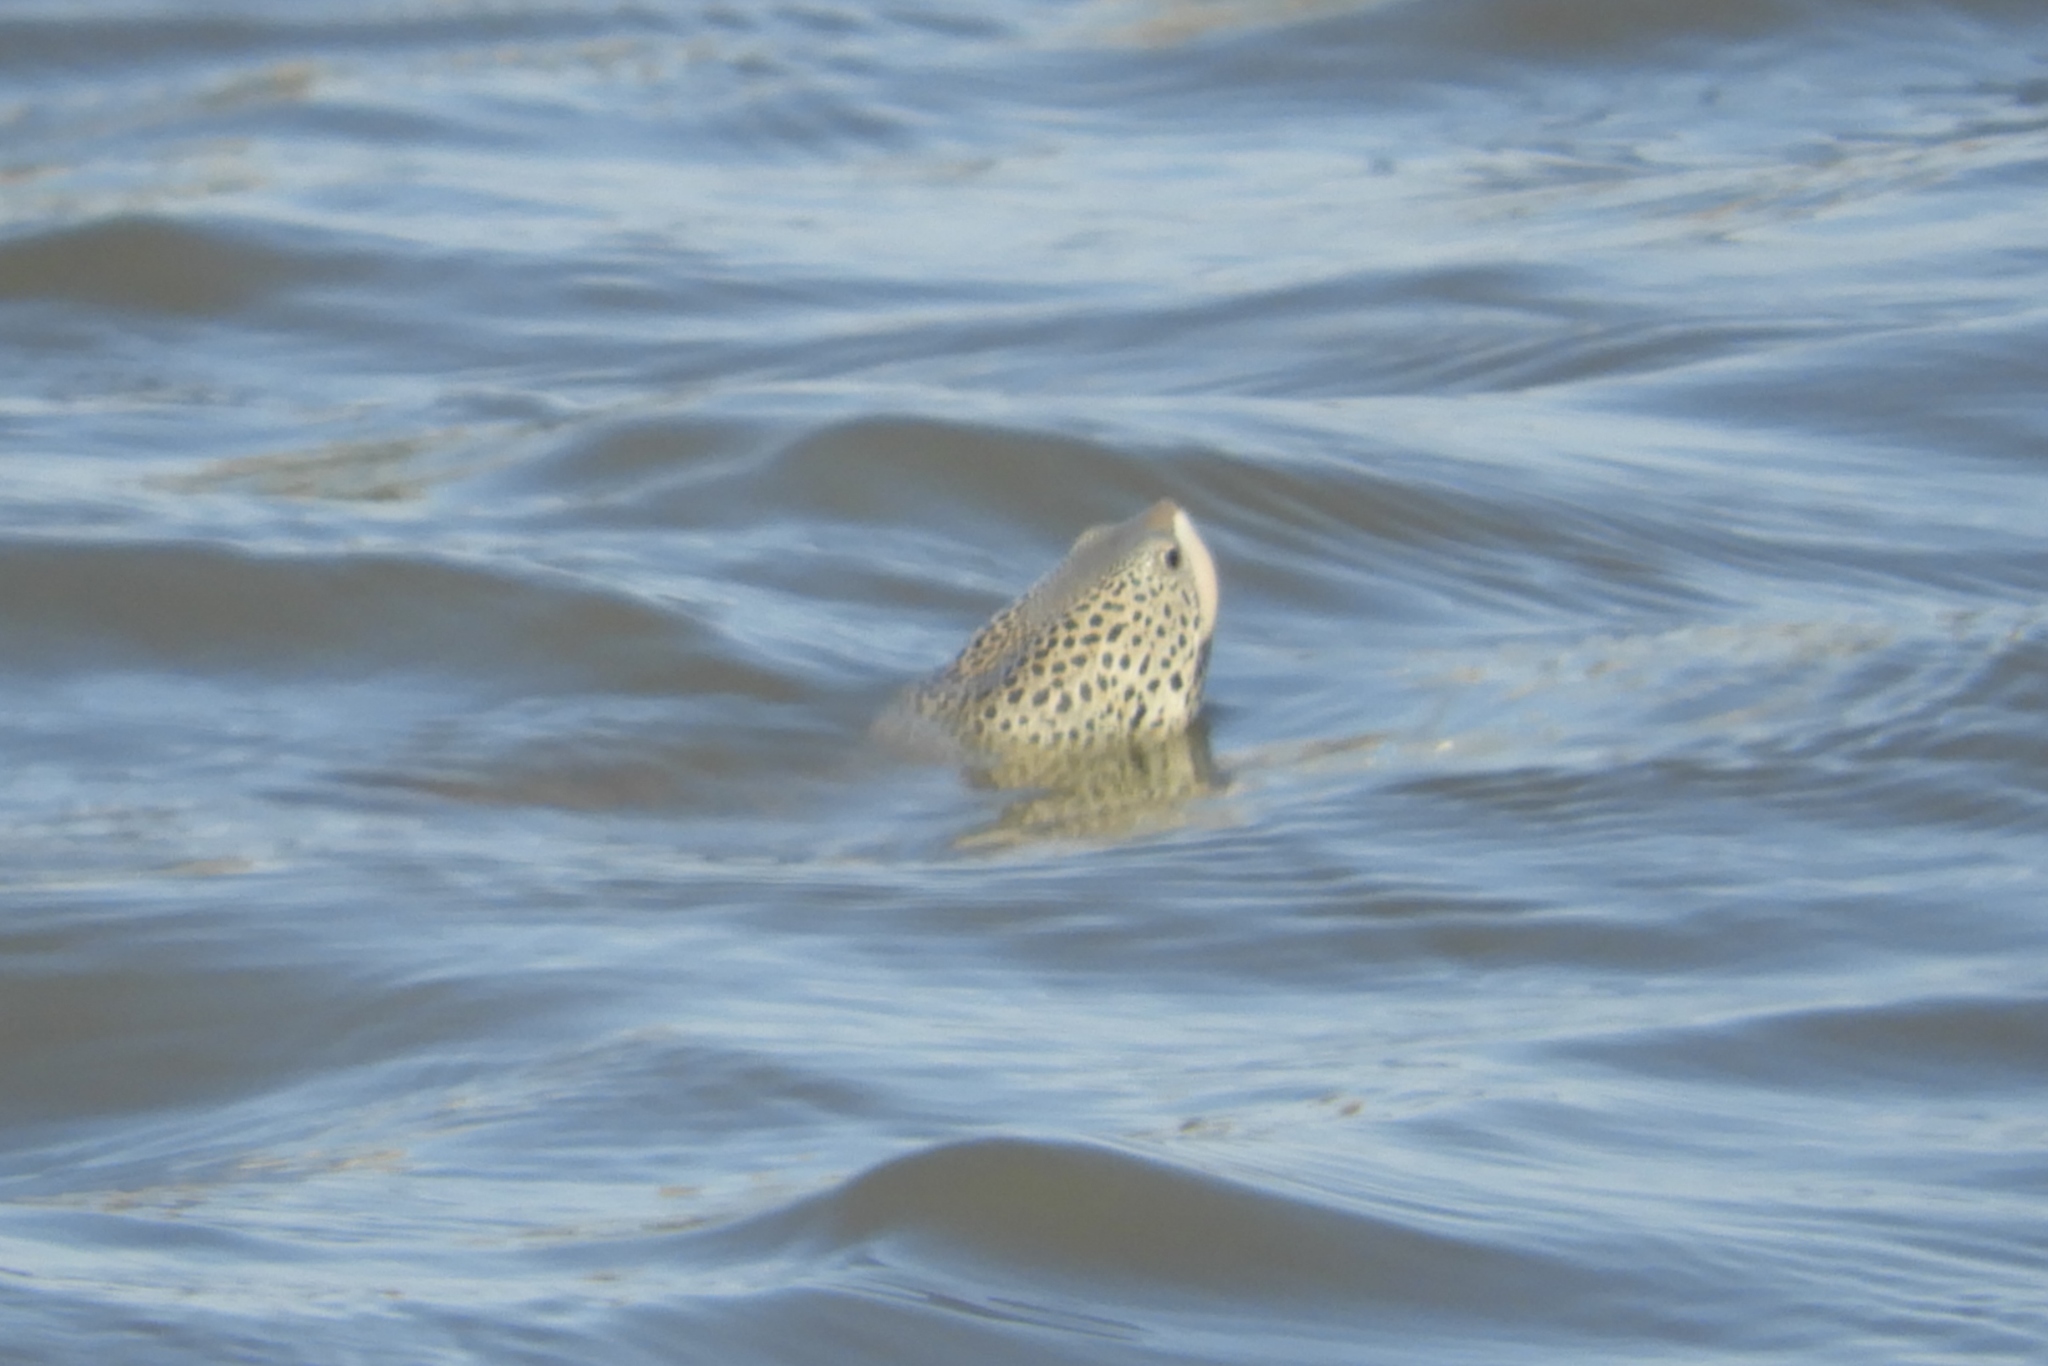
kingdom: Animalia
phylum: Chordata
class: Testudines
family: Emydidae
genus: Malaclemys
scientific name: Malaclemys terrapin
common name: Diamondback terrapin
